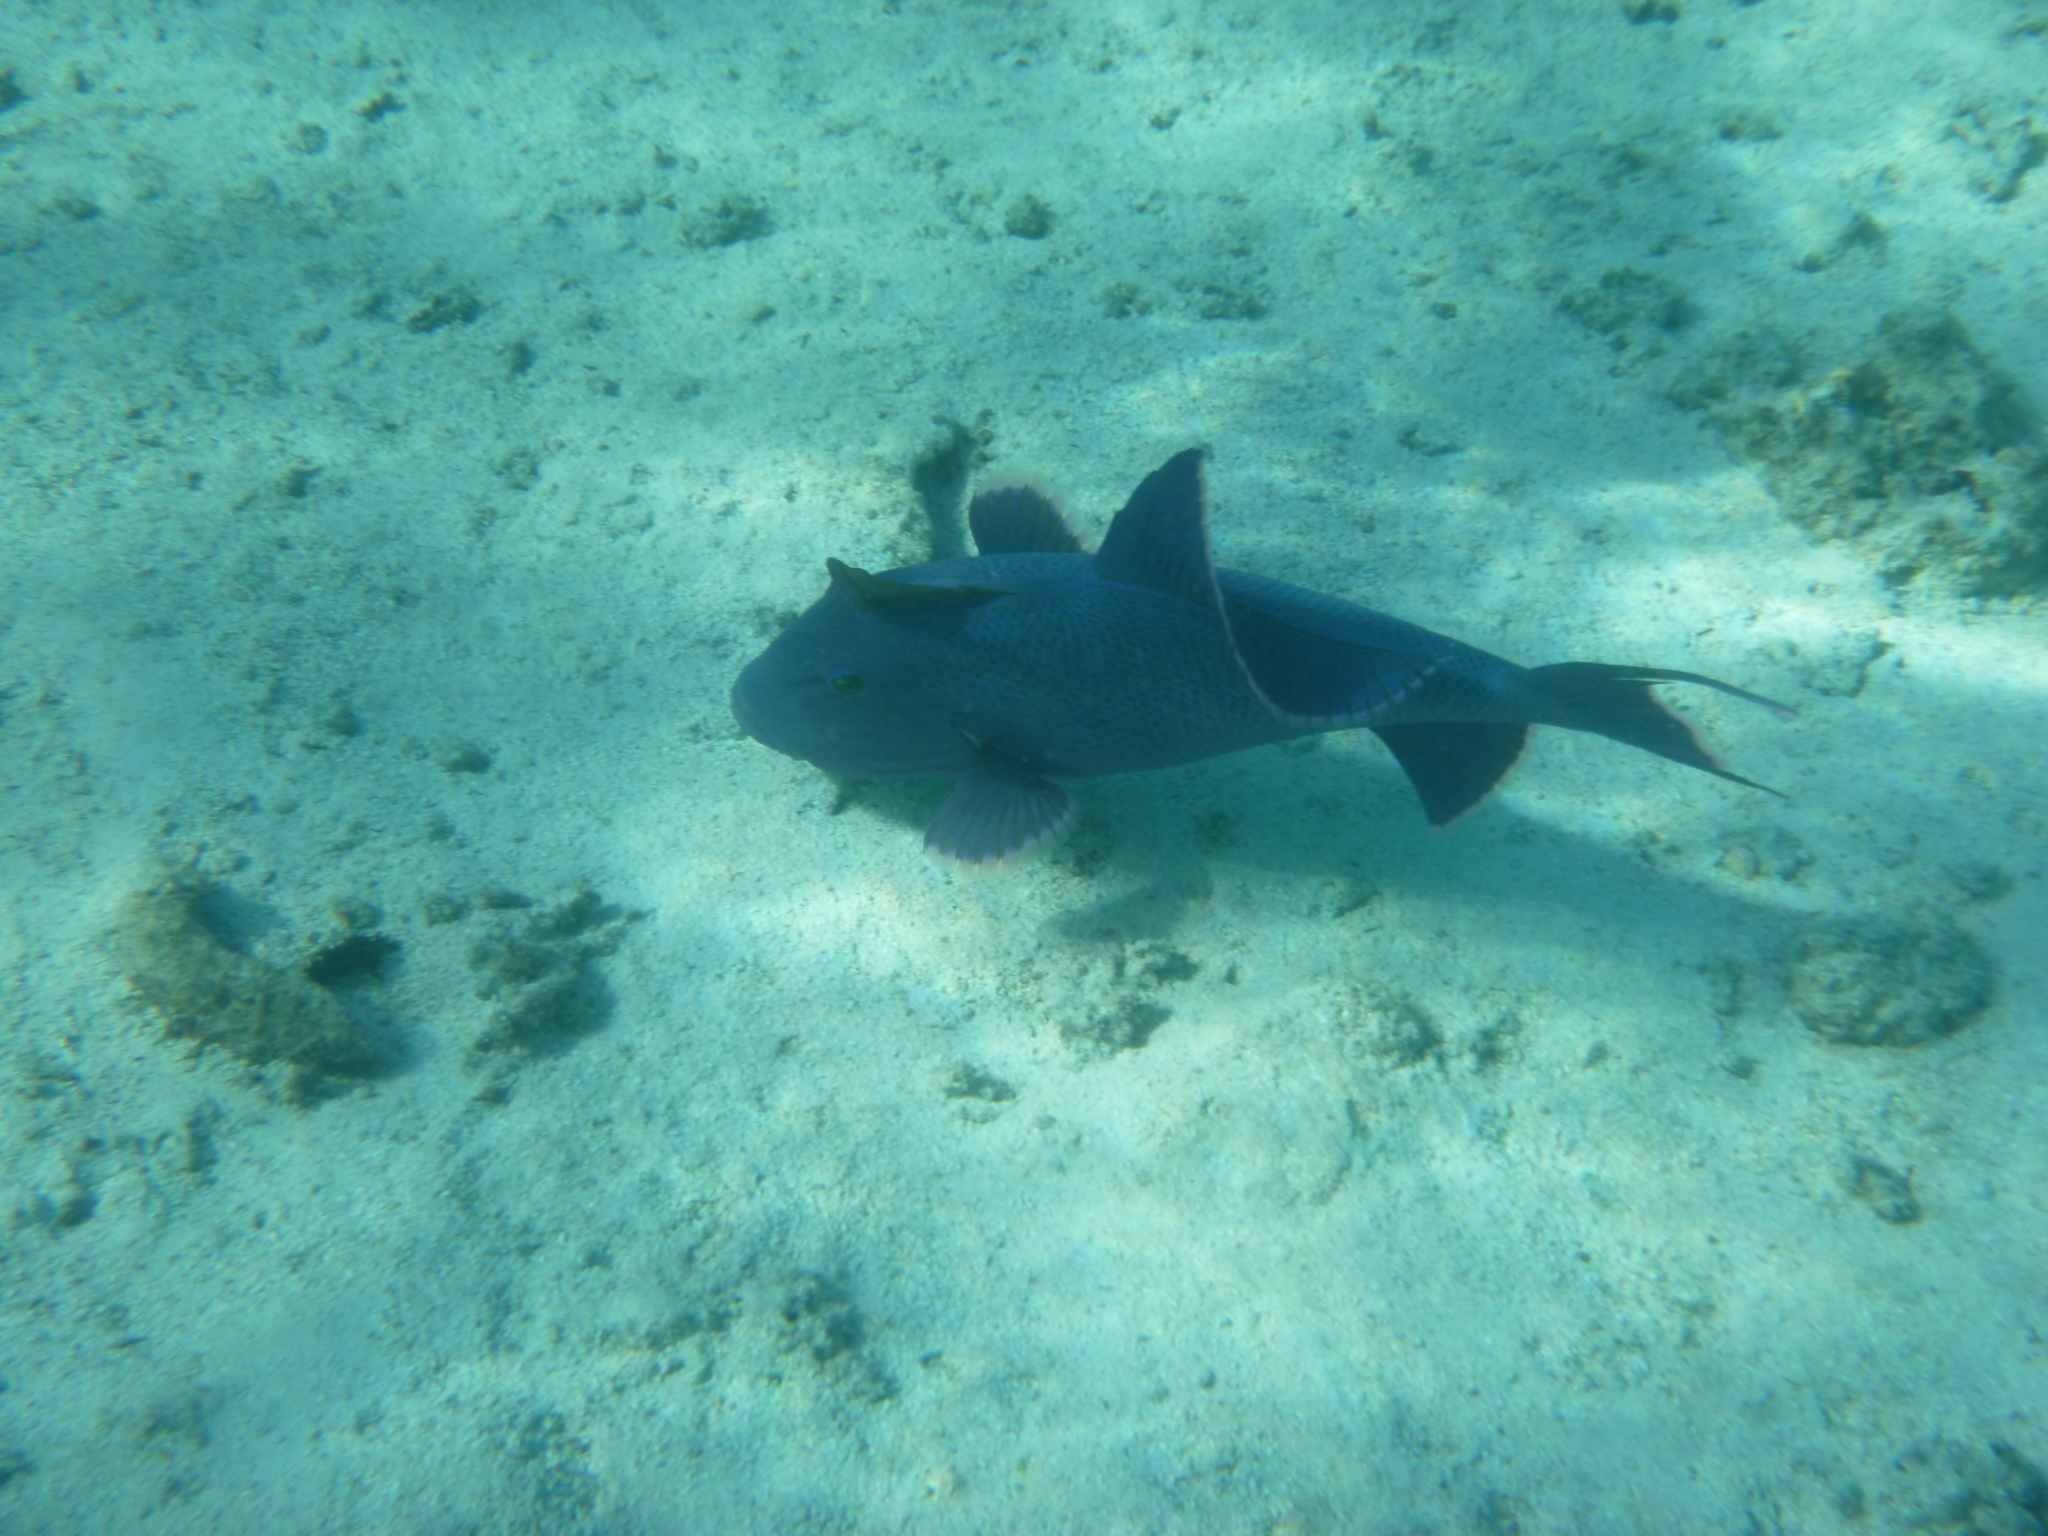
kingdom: Animalia
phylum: Chordata
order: Tetraodontiformes
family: Balistidae
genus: Pseudobalistes
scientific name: Pseudobalistes fuscus
